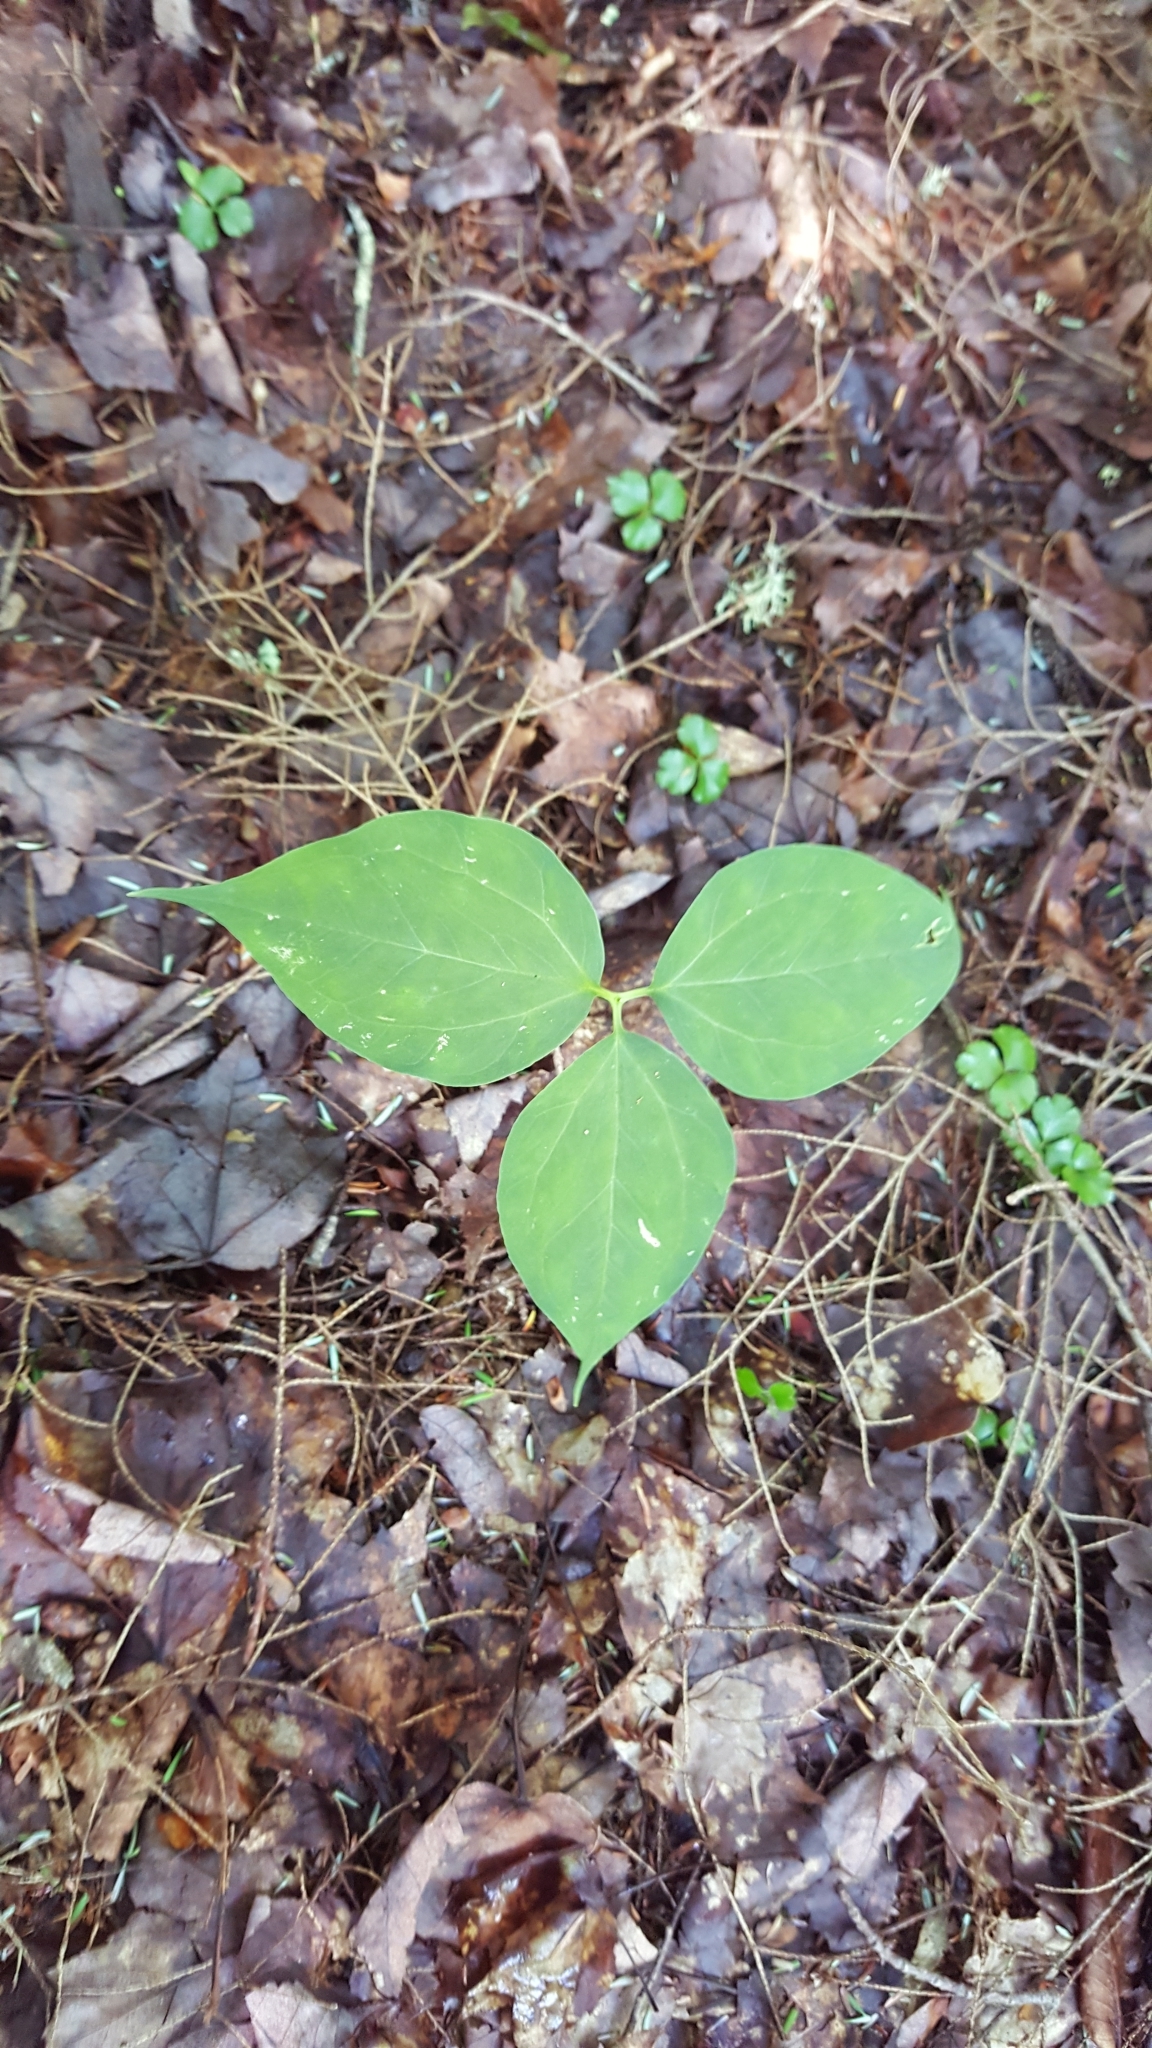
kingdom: Plantae
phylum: Tracheophyta
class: Liliopsida
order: Liliales
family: Melanthiaceae
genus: Trillium
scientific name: Trillium undulatum
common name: Paint trillium
